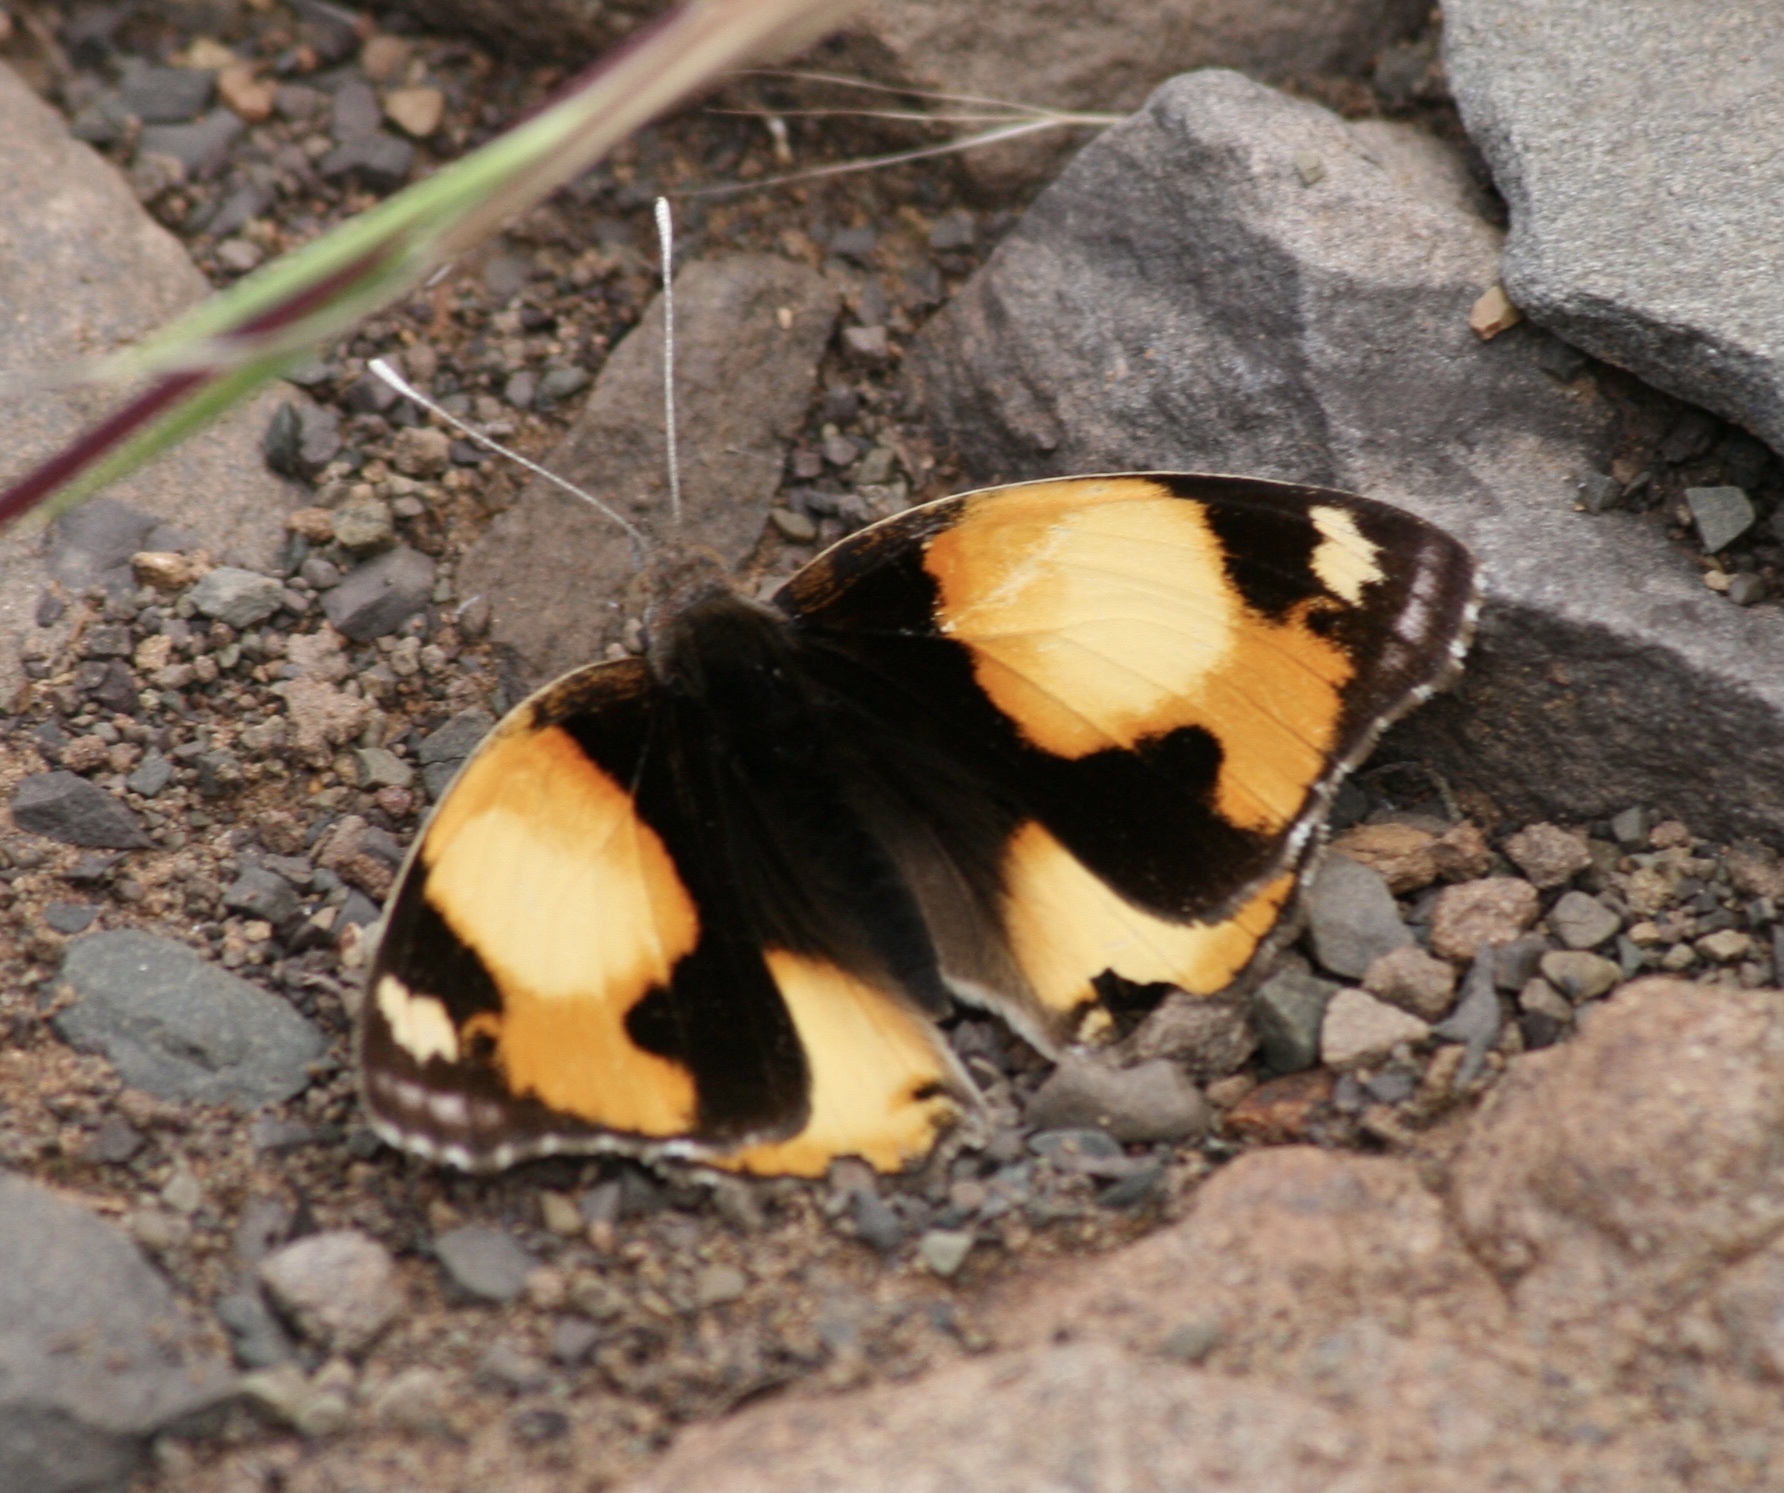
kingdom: Animalia
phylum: Arthropoda
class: Insecta
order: Lepidoptera
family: Nymphalidae
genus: Junonia
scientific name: Junonia hierta
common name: Yellow pansy
